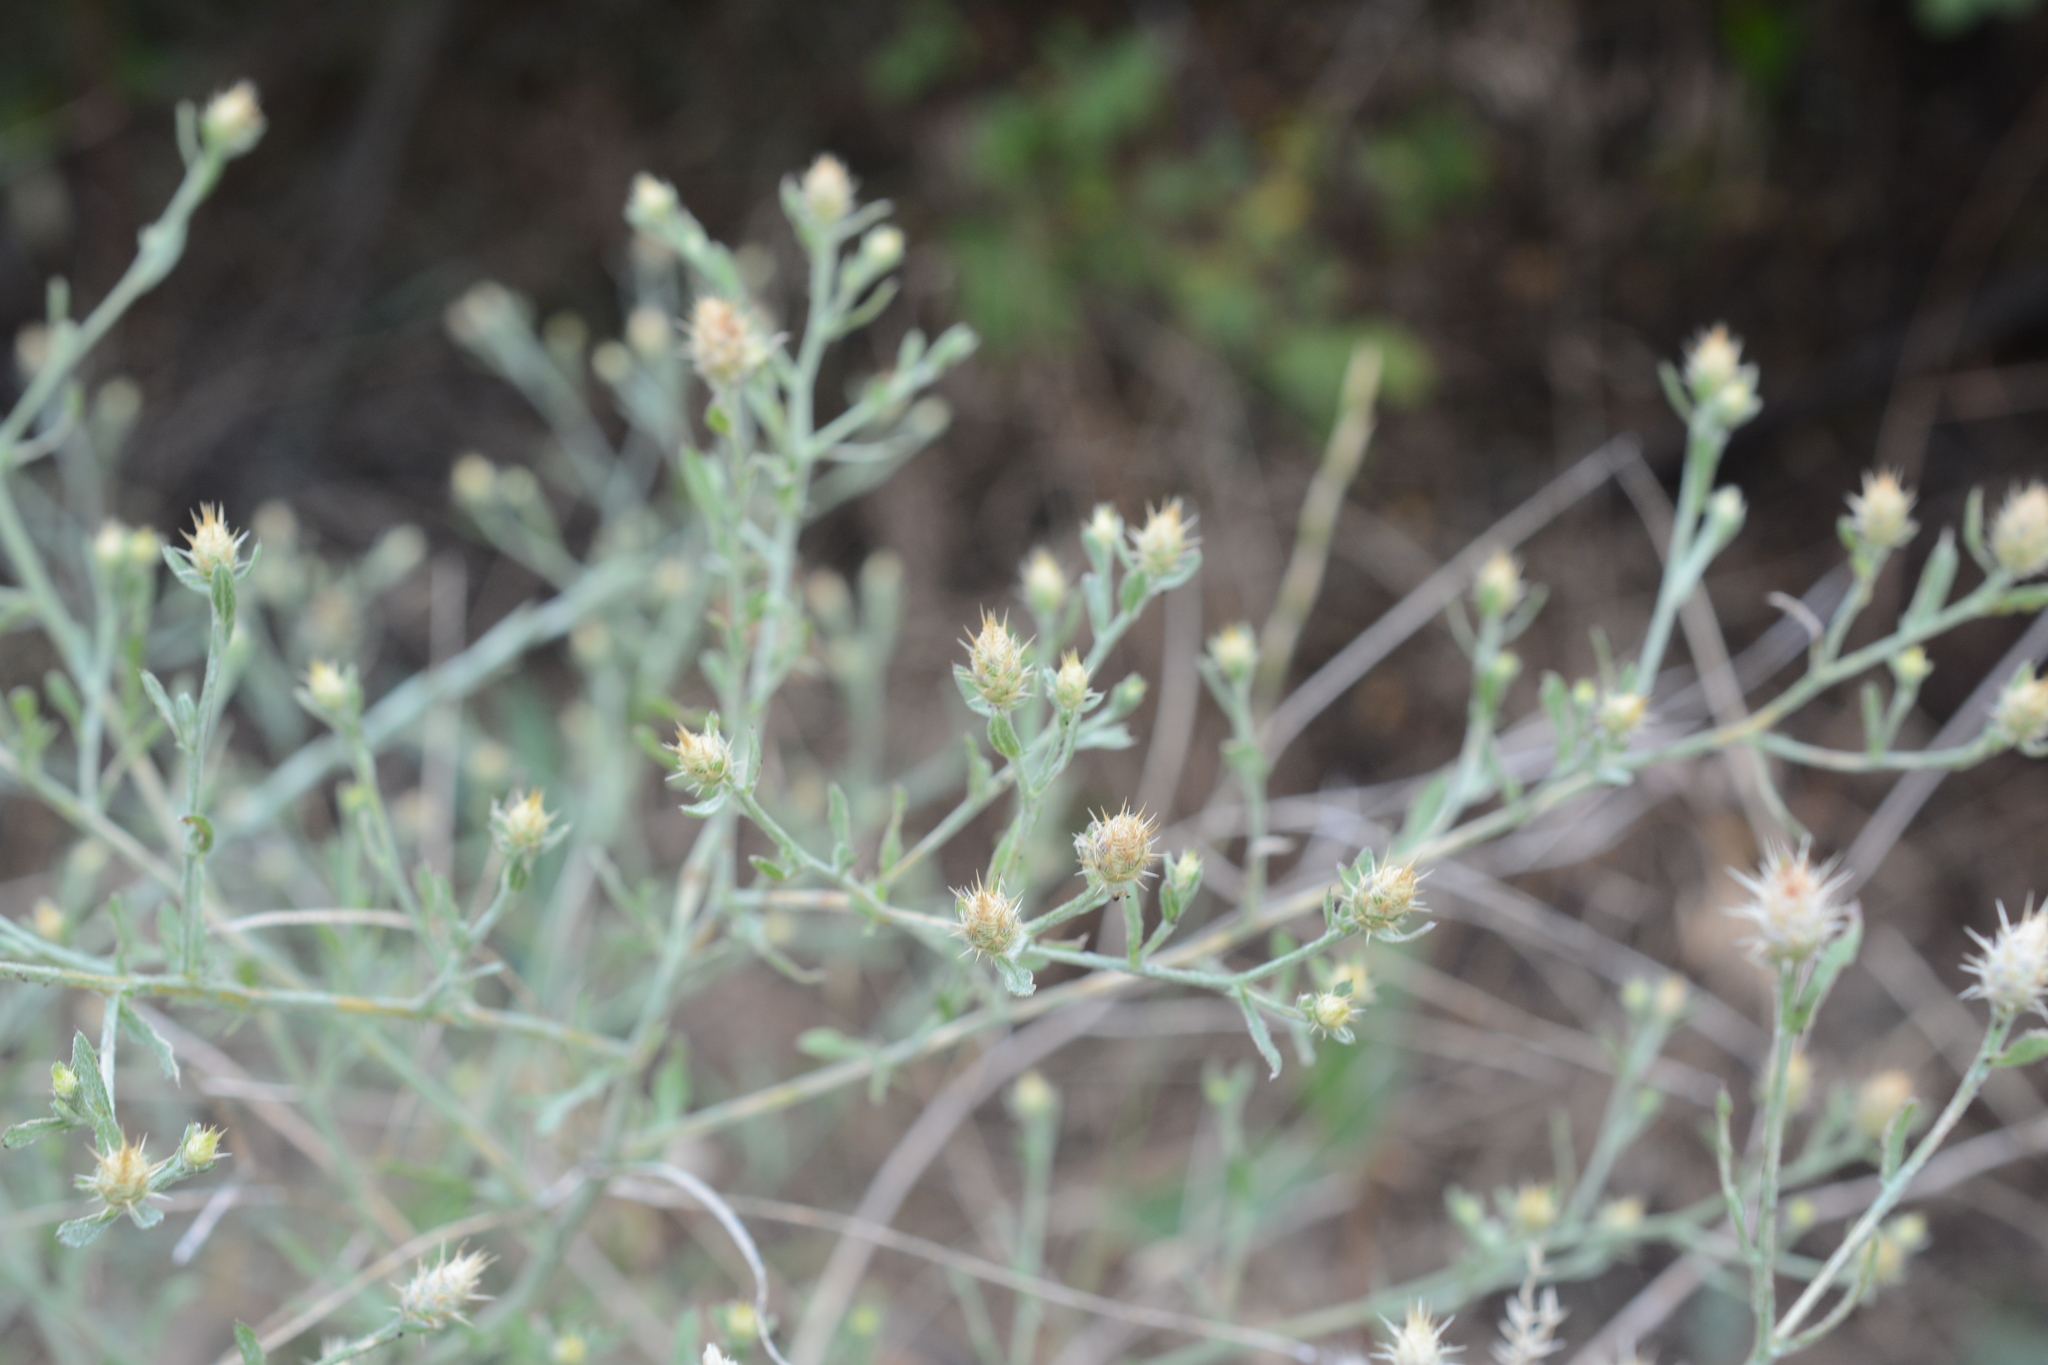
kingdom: Plantae
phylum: Tracheophyta
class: Magnoliopsida
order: Asterales
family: Asteraceae
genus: Centaurea
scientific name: Centaurea diffusa
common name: Diffuse knapweed
